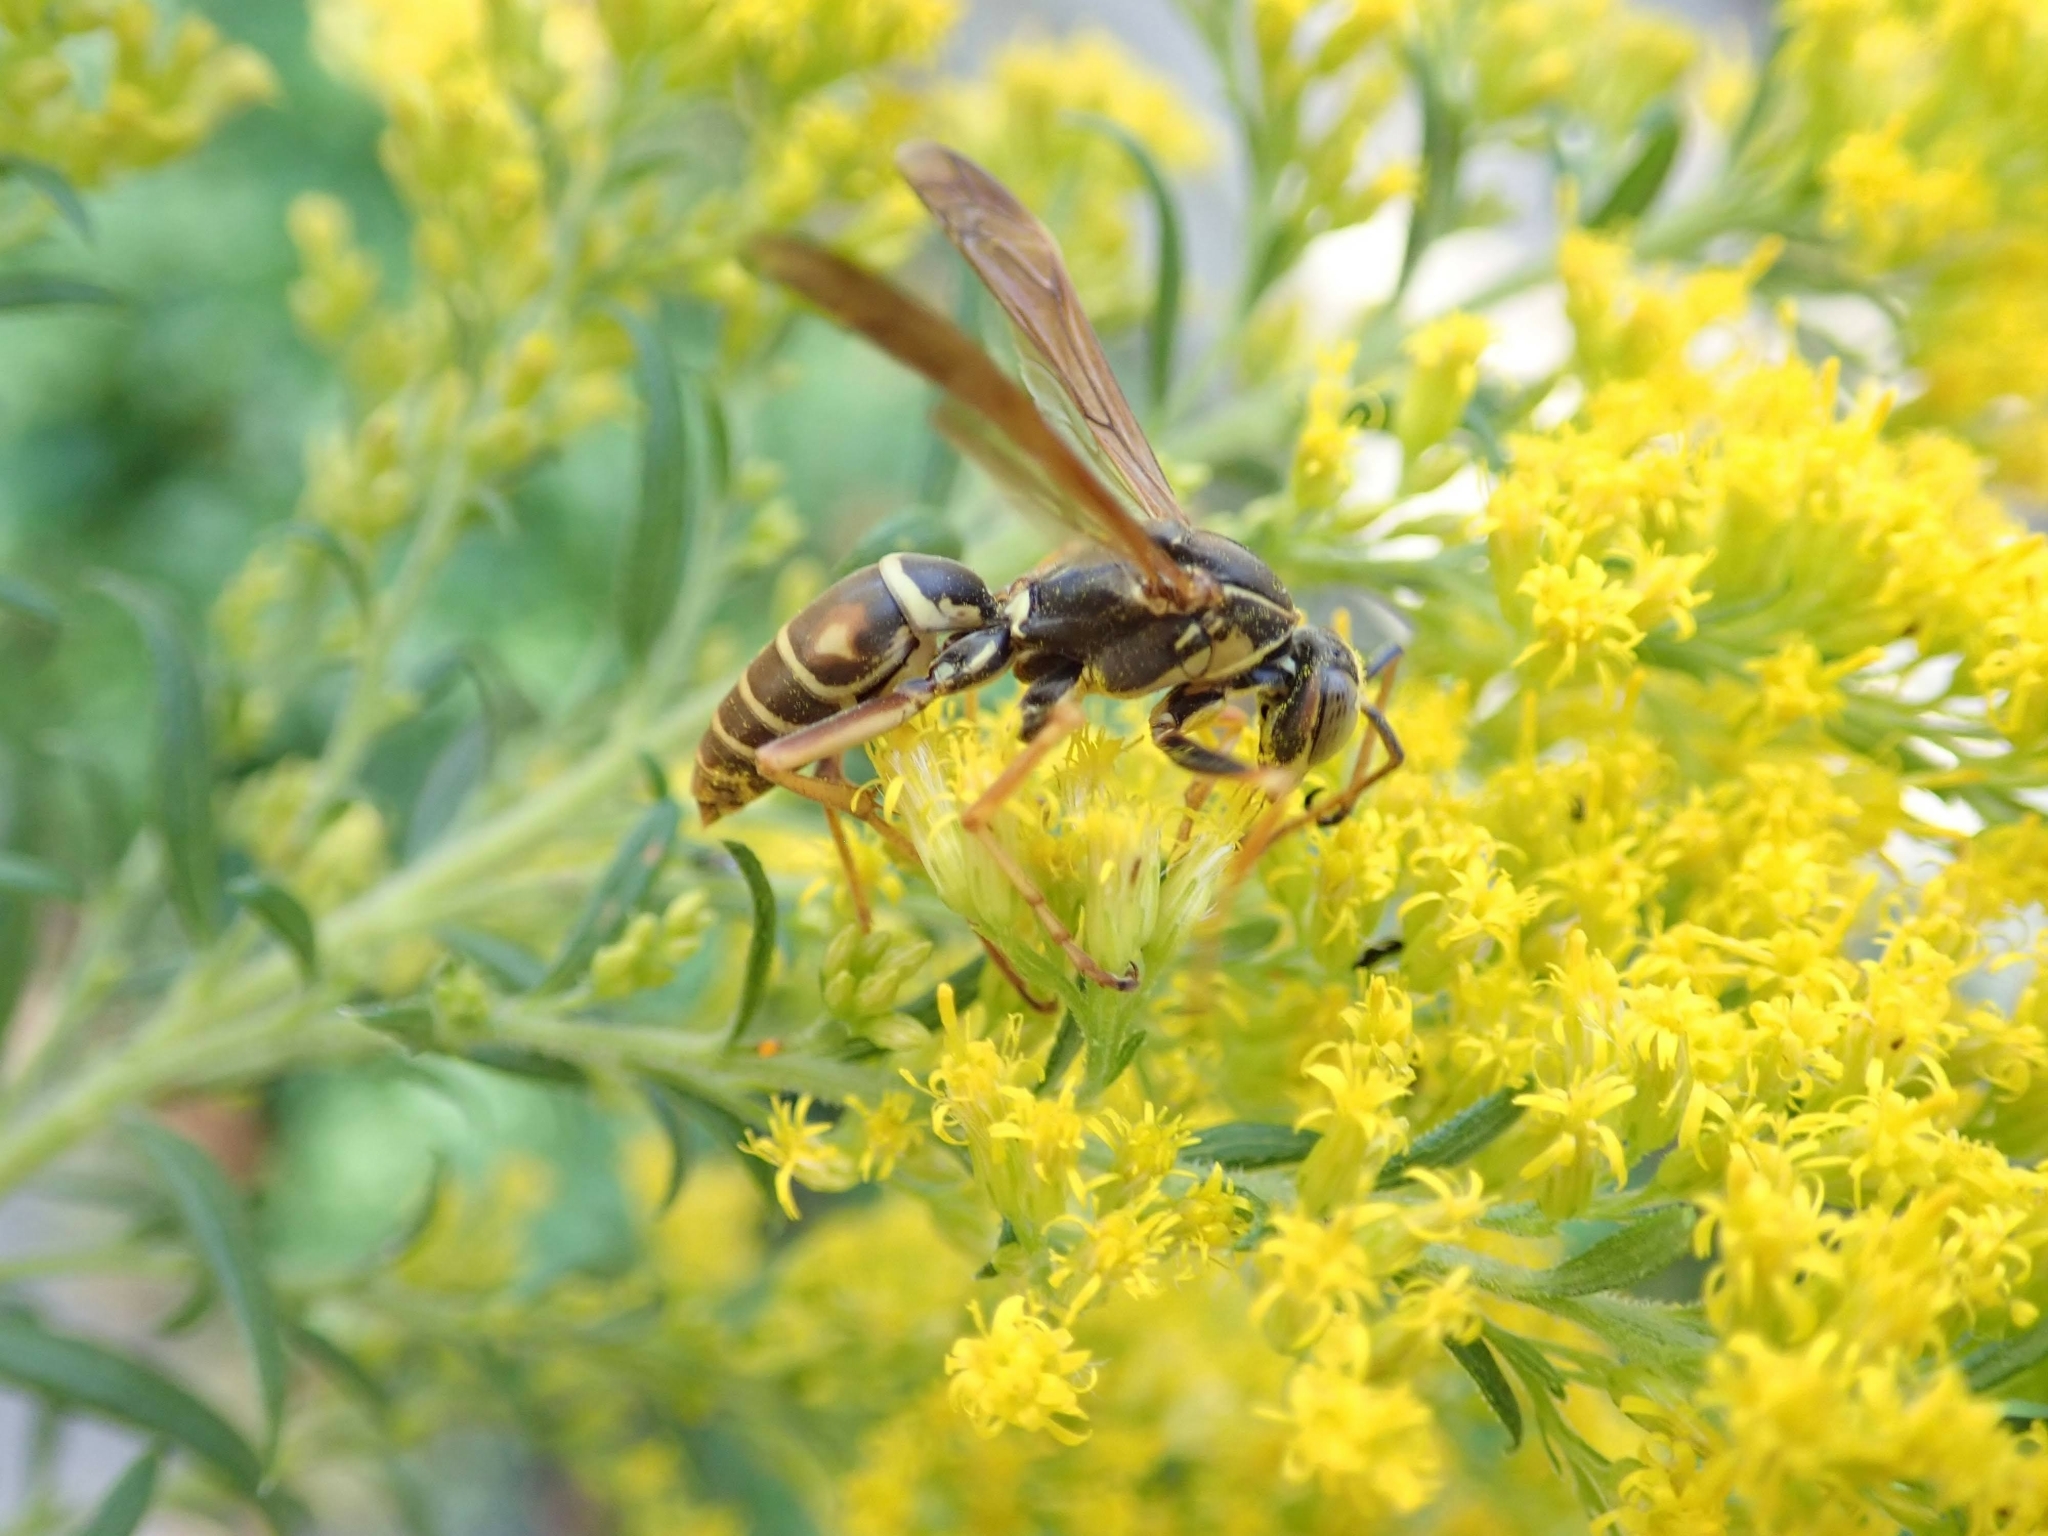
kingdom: Animalia
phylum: Arthropoda
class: Insecta
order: Hymenoptera
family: Eumenidae
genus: Polistes
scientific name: Polistes fuscatus
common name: Dark paper wasp
